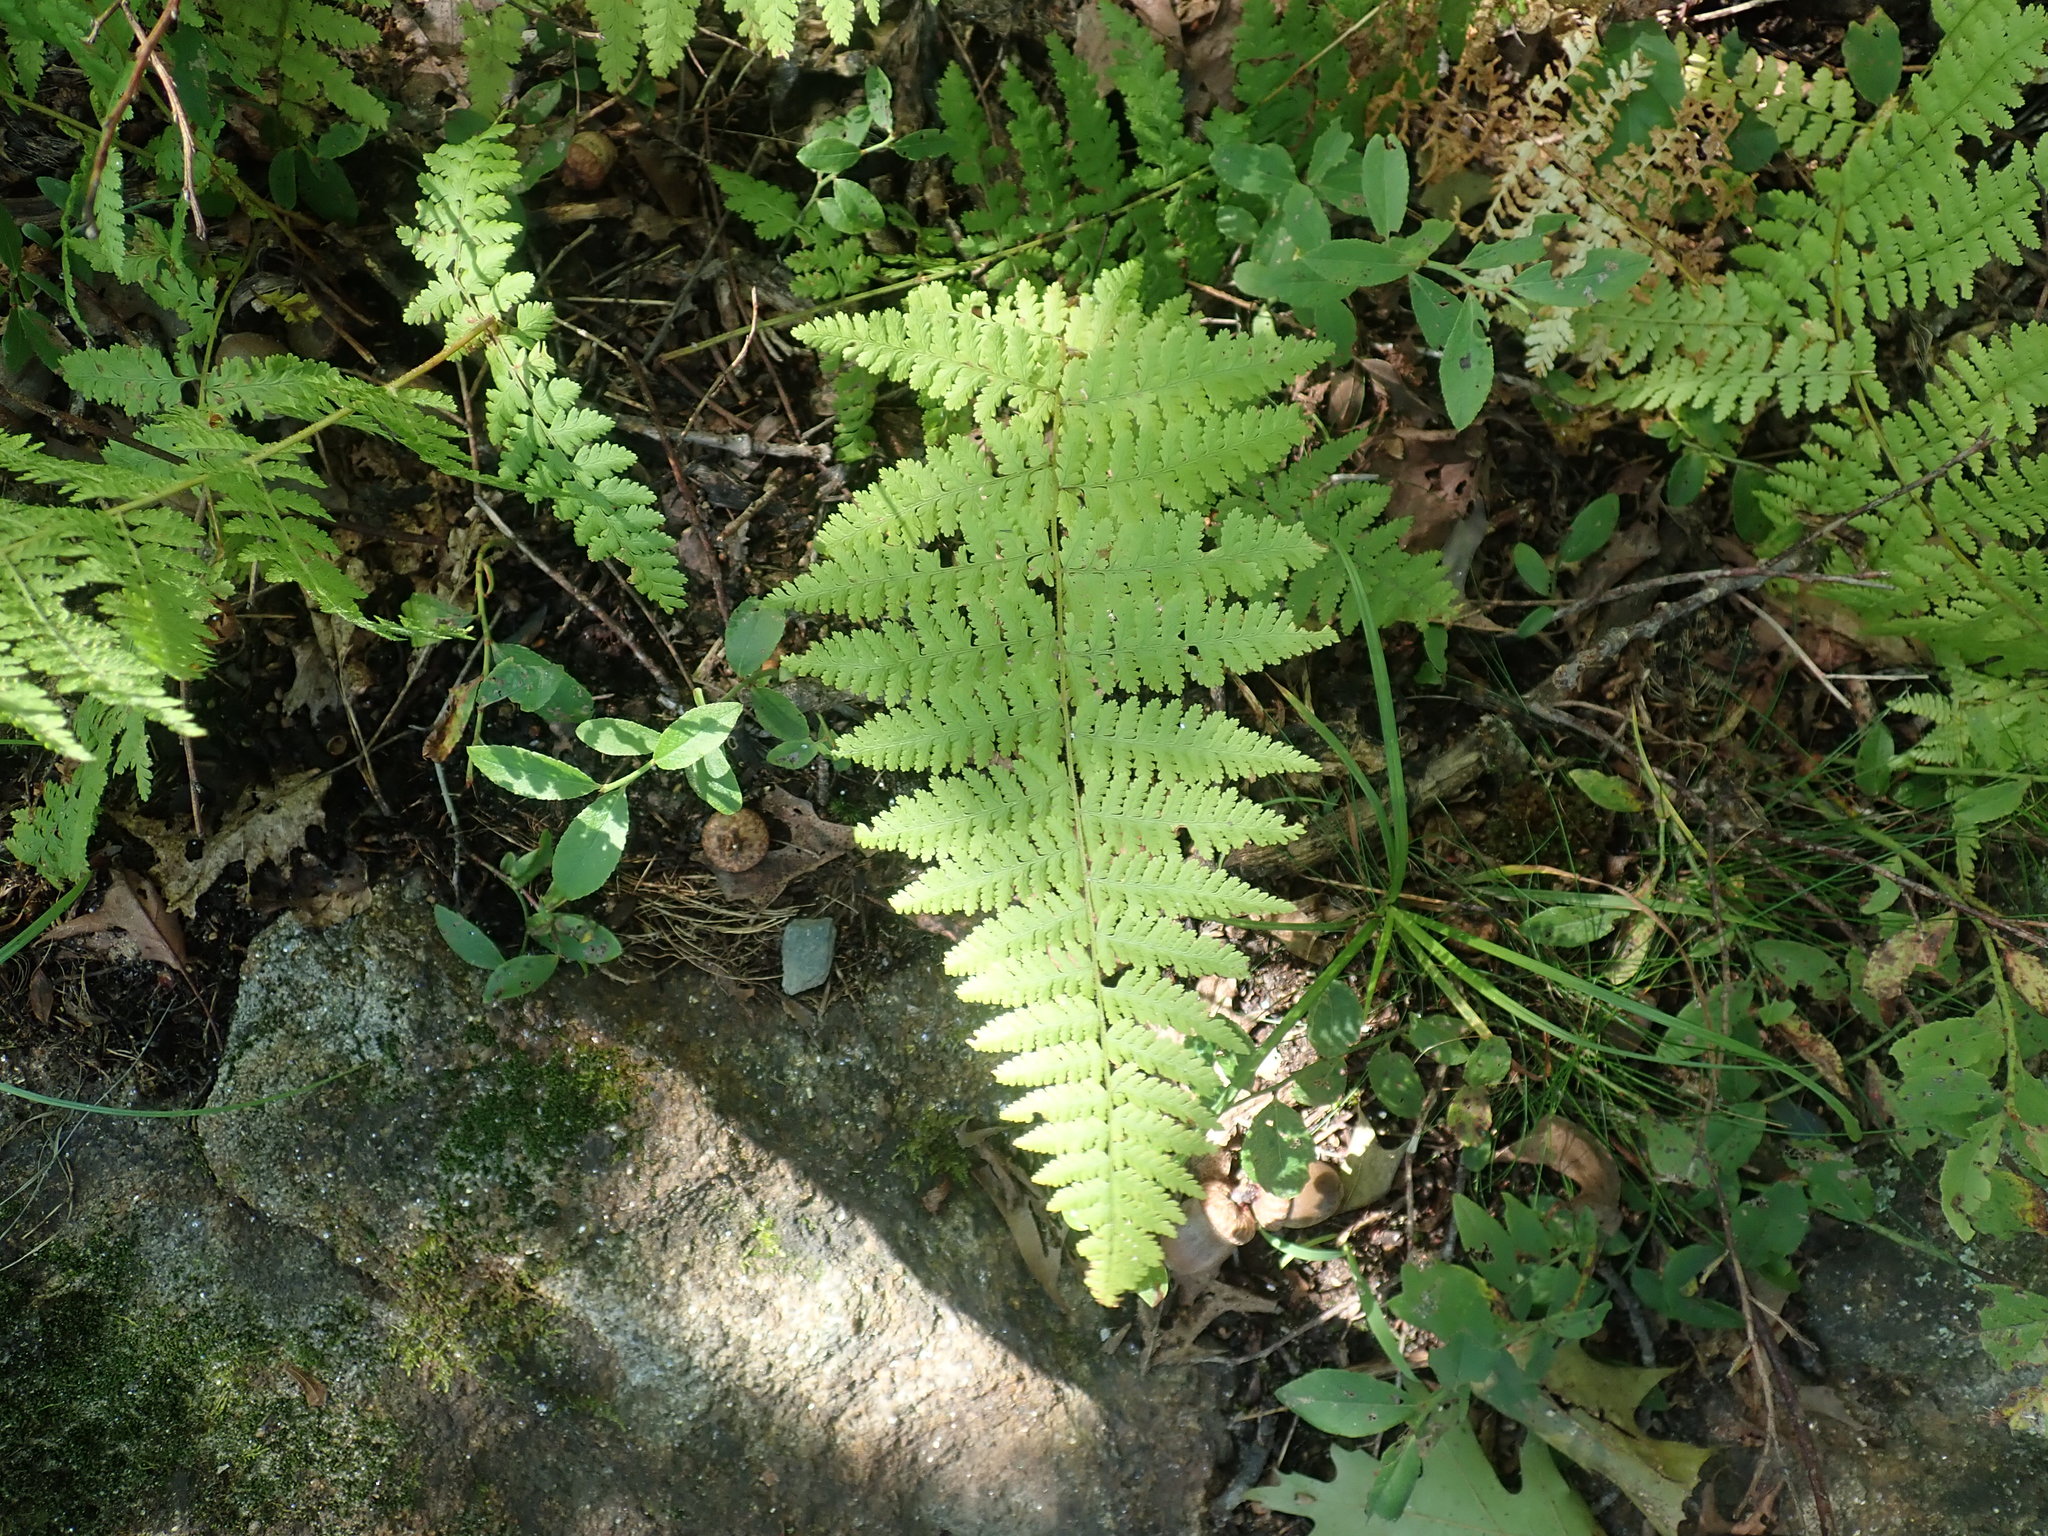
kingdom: Plantae
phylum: Tracheophyta
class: Polypodiopsida
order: Polypodiales
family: Dennstaedtiaceae
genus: Sitobolium
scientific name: Sitobolium punctilobum
